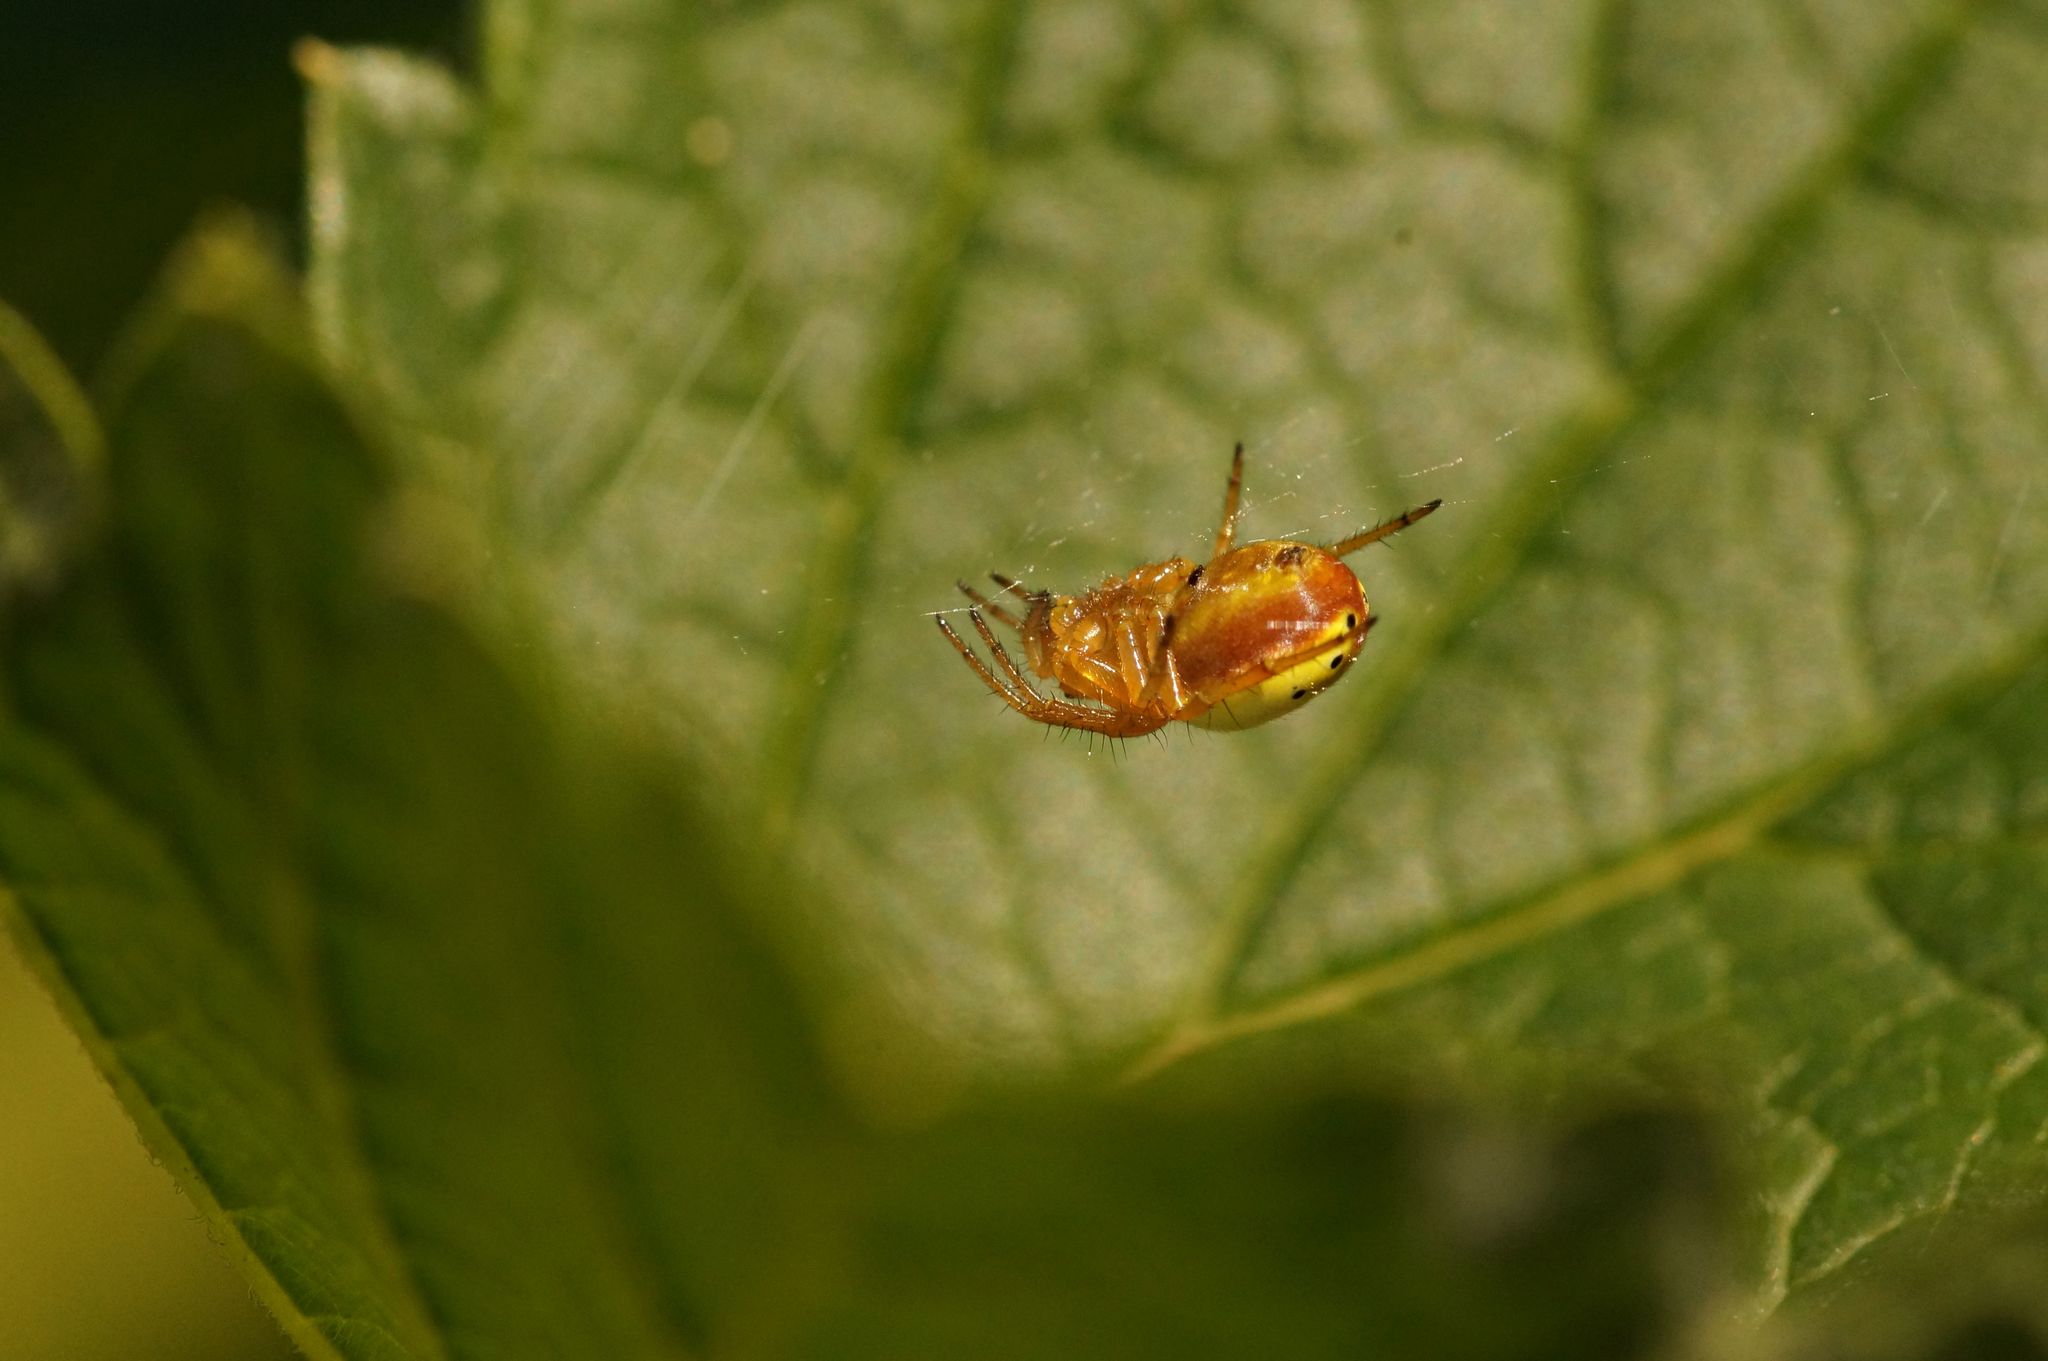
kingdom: Animalia
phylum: Arthropoda
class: Arachnida
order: Araneae
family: Araneidae
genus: Araniella
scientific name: Araniella displicata
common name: Sixspotted orb weaver
